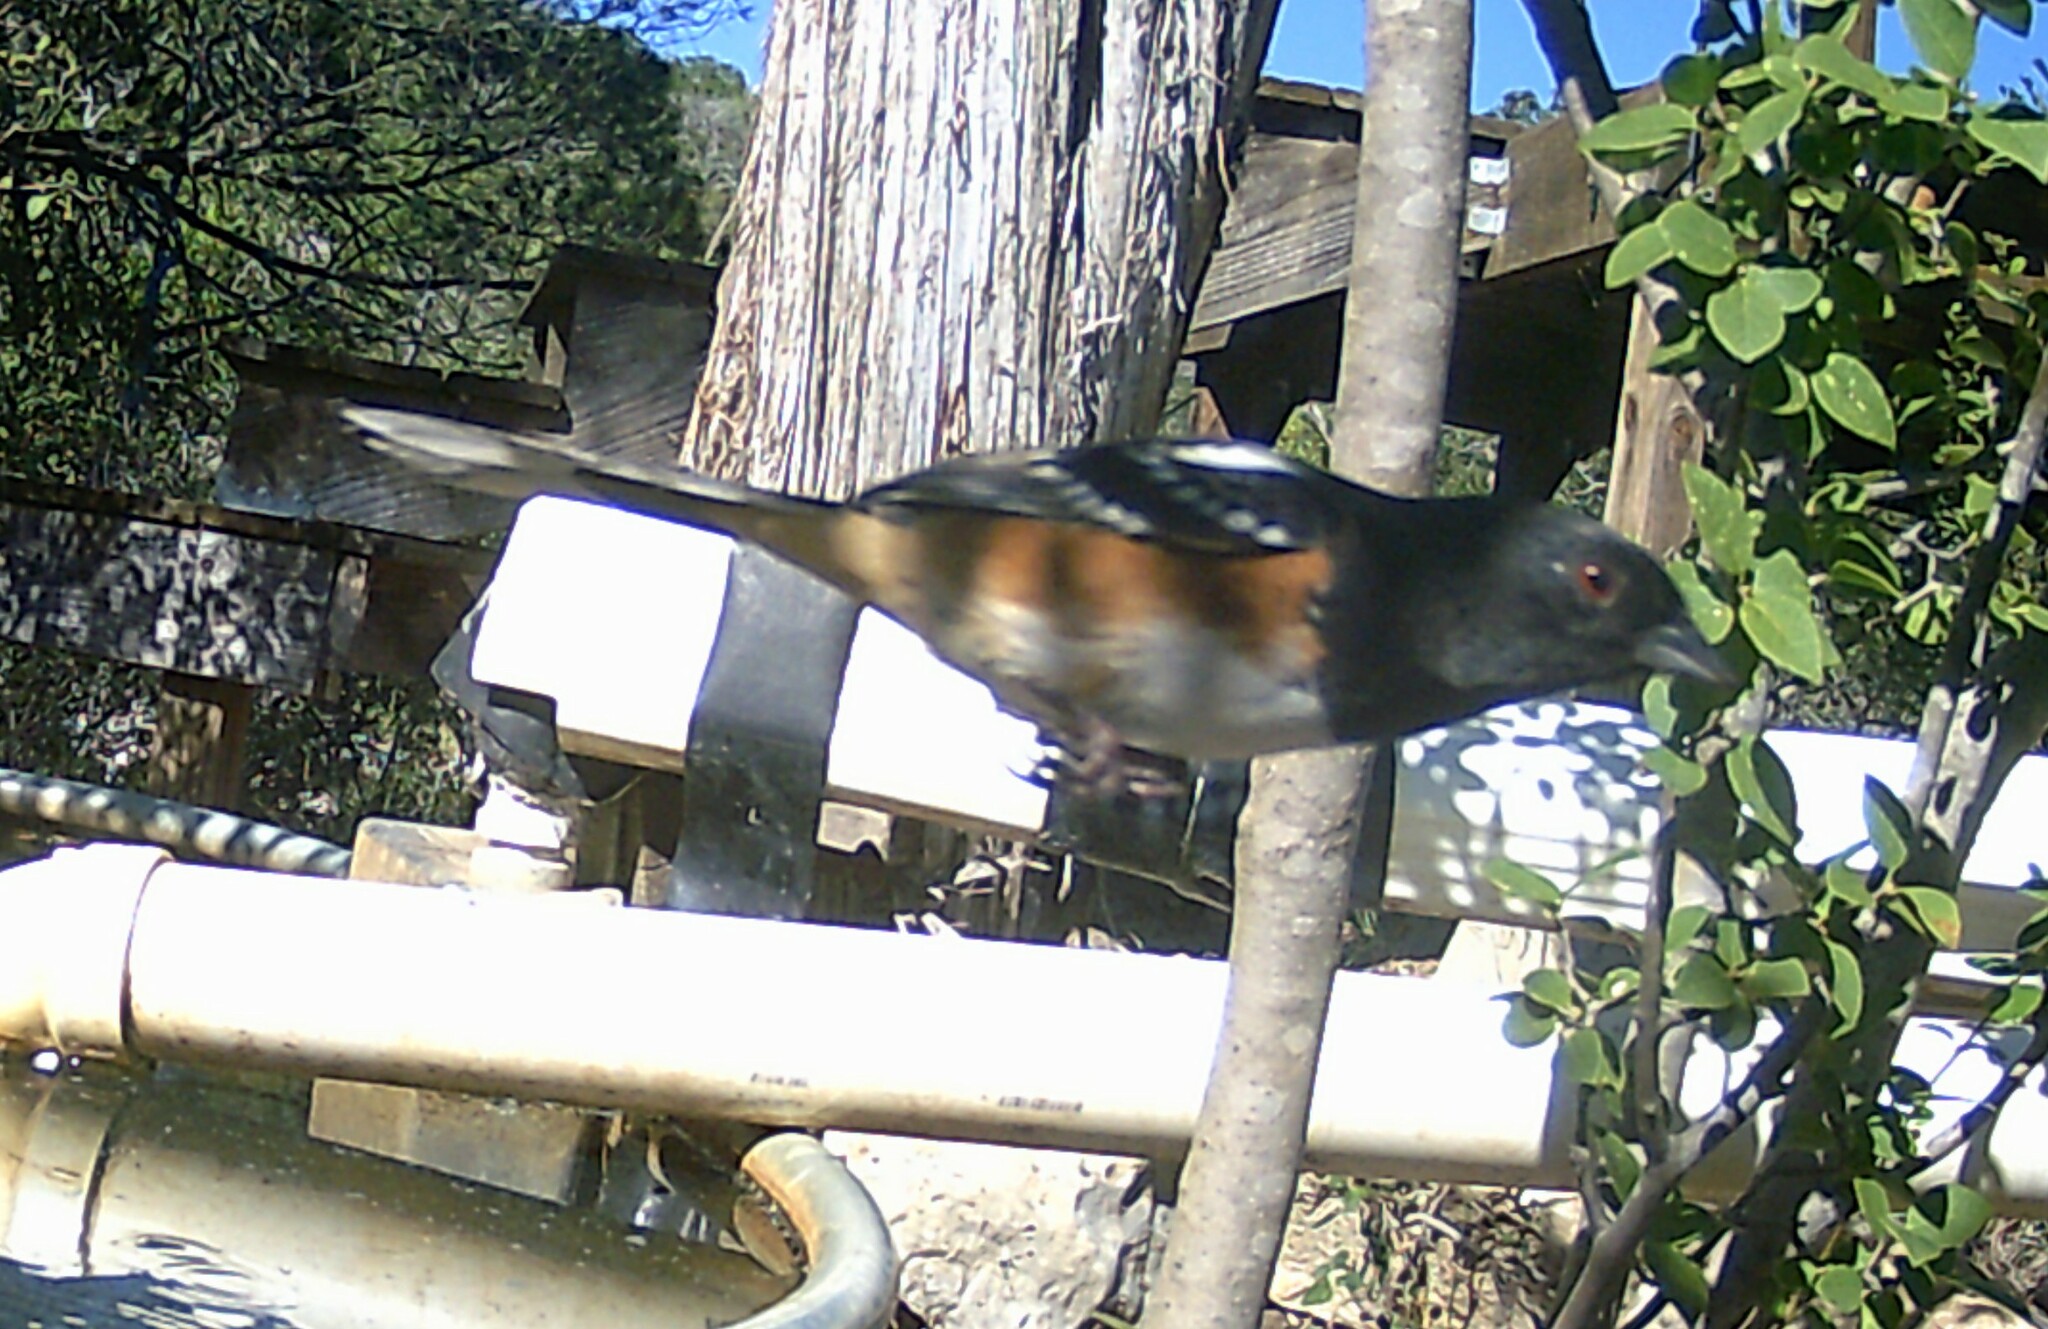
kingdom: Animalia
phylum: Chordata
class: Aves
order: Passeriformes
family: Passerellidae
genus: Pipilo
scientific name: Pipilo maculatus
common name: Spotted towhee
